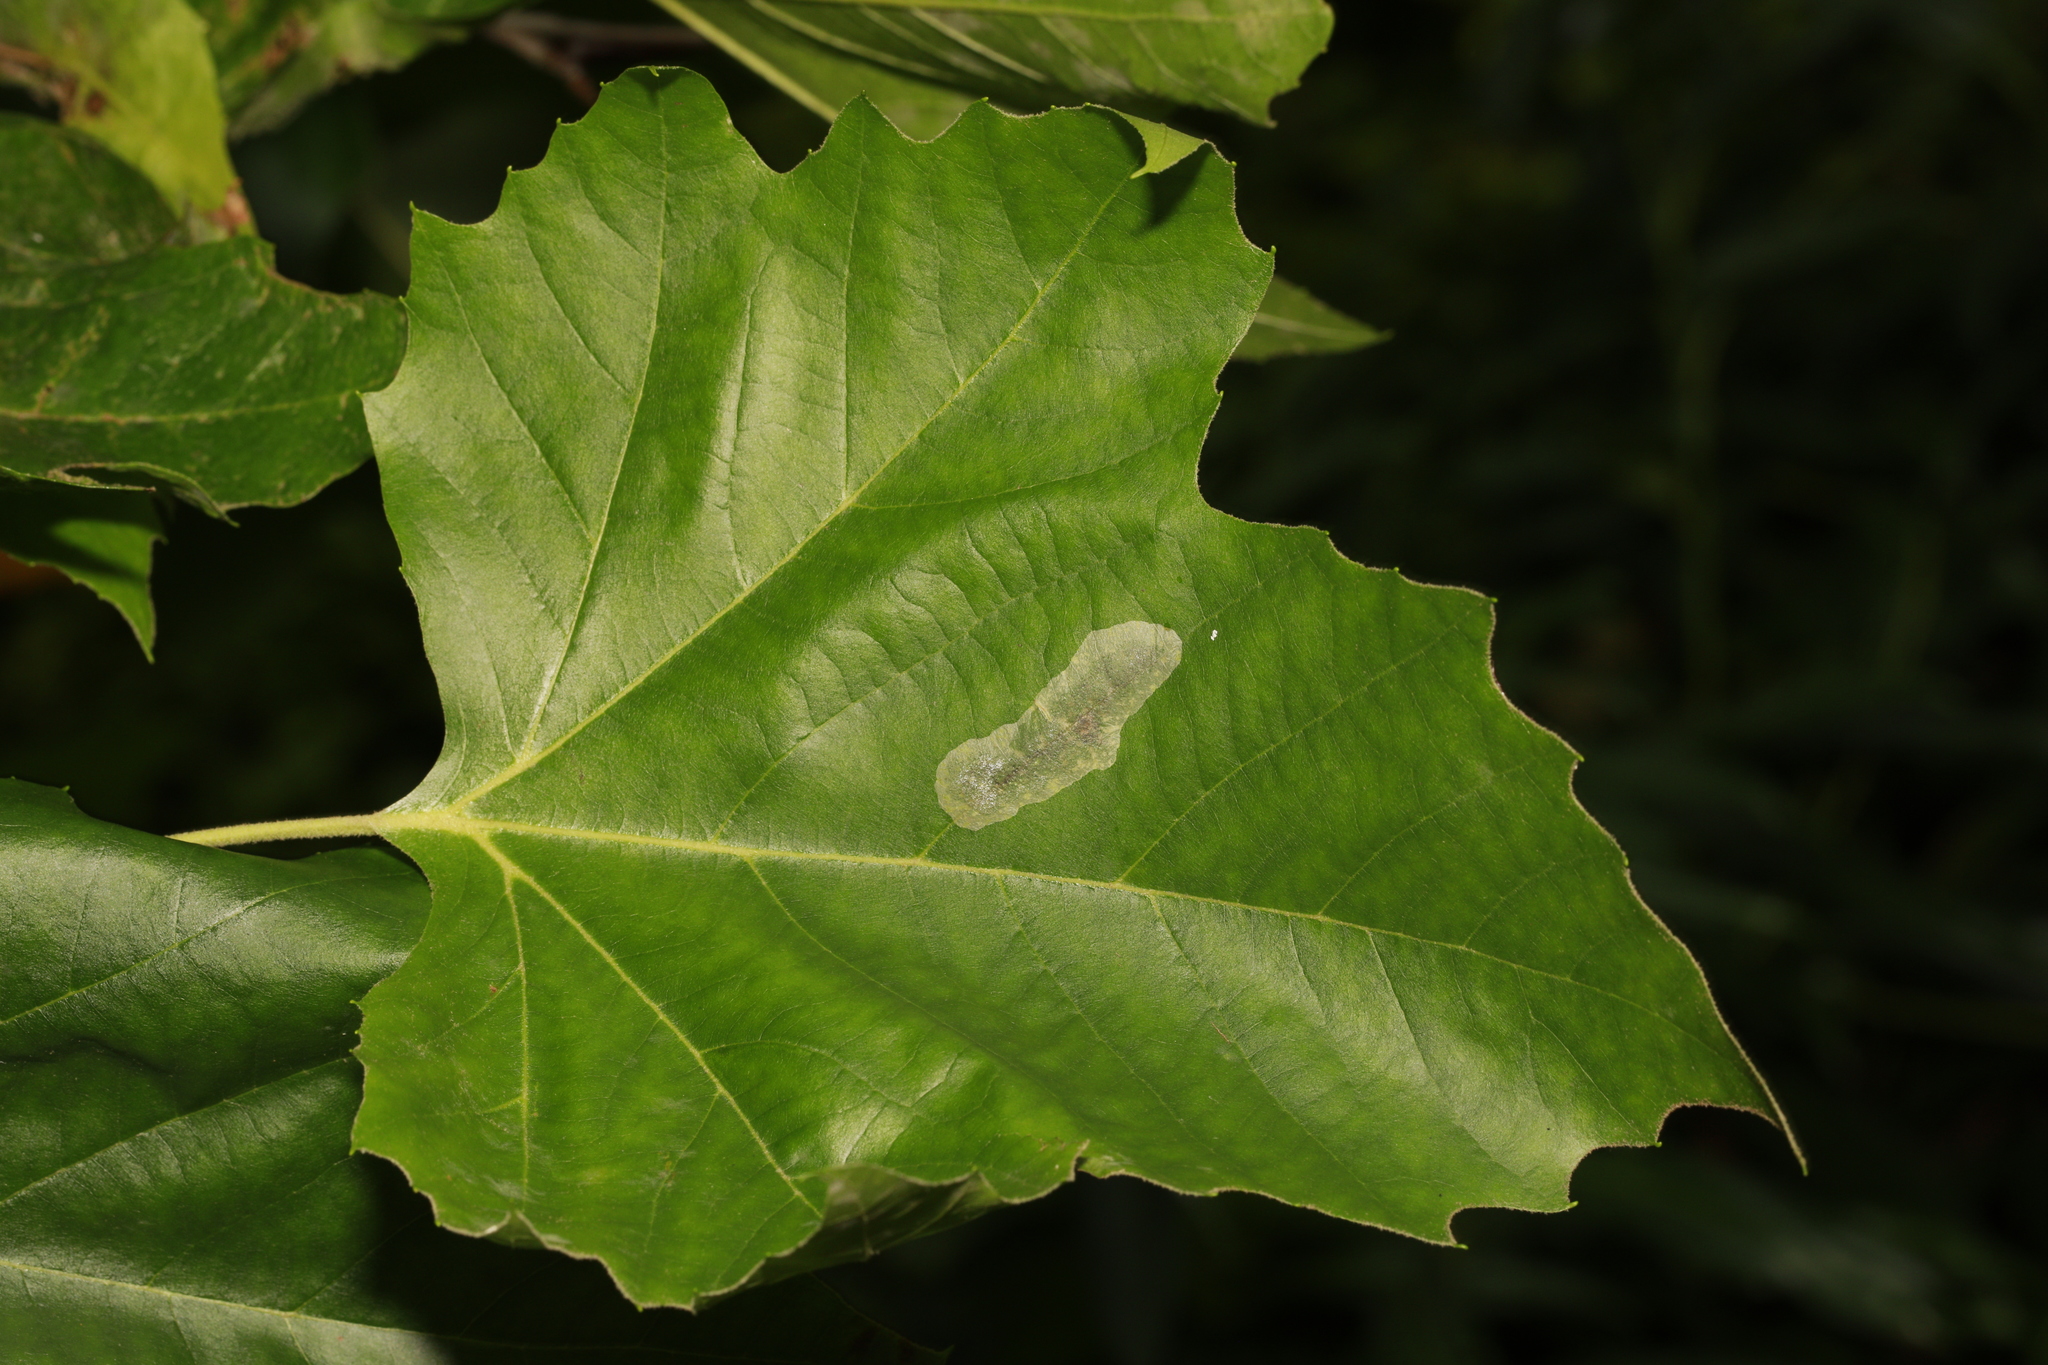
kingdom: Animalia
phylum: Arthropoda
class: Insecta
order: Lepidoptera
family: Gracillariidae
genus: Phyllonorycter
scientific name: Phyllonorycter leucographella
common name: Firethorn leaf-miner
